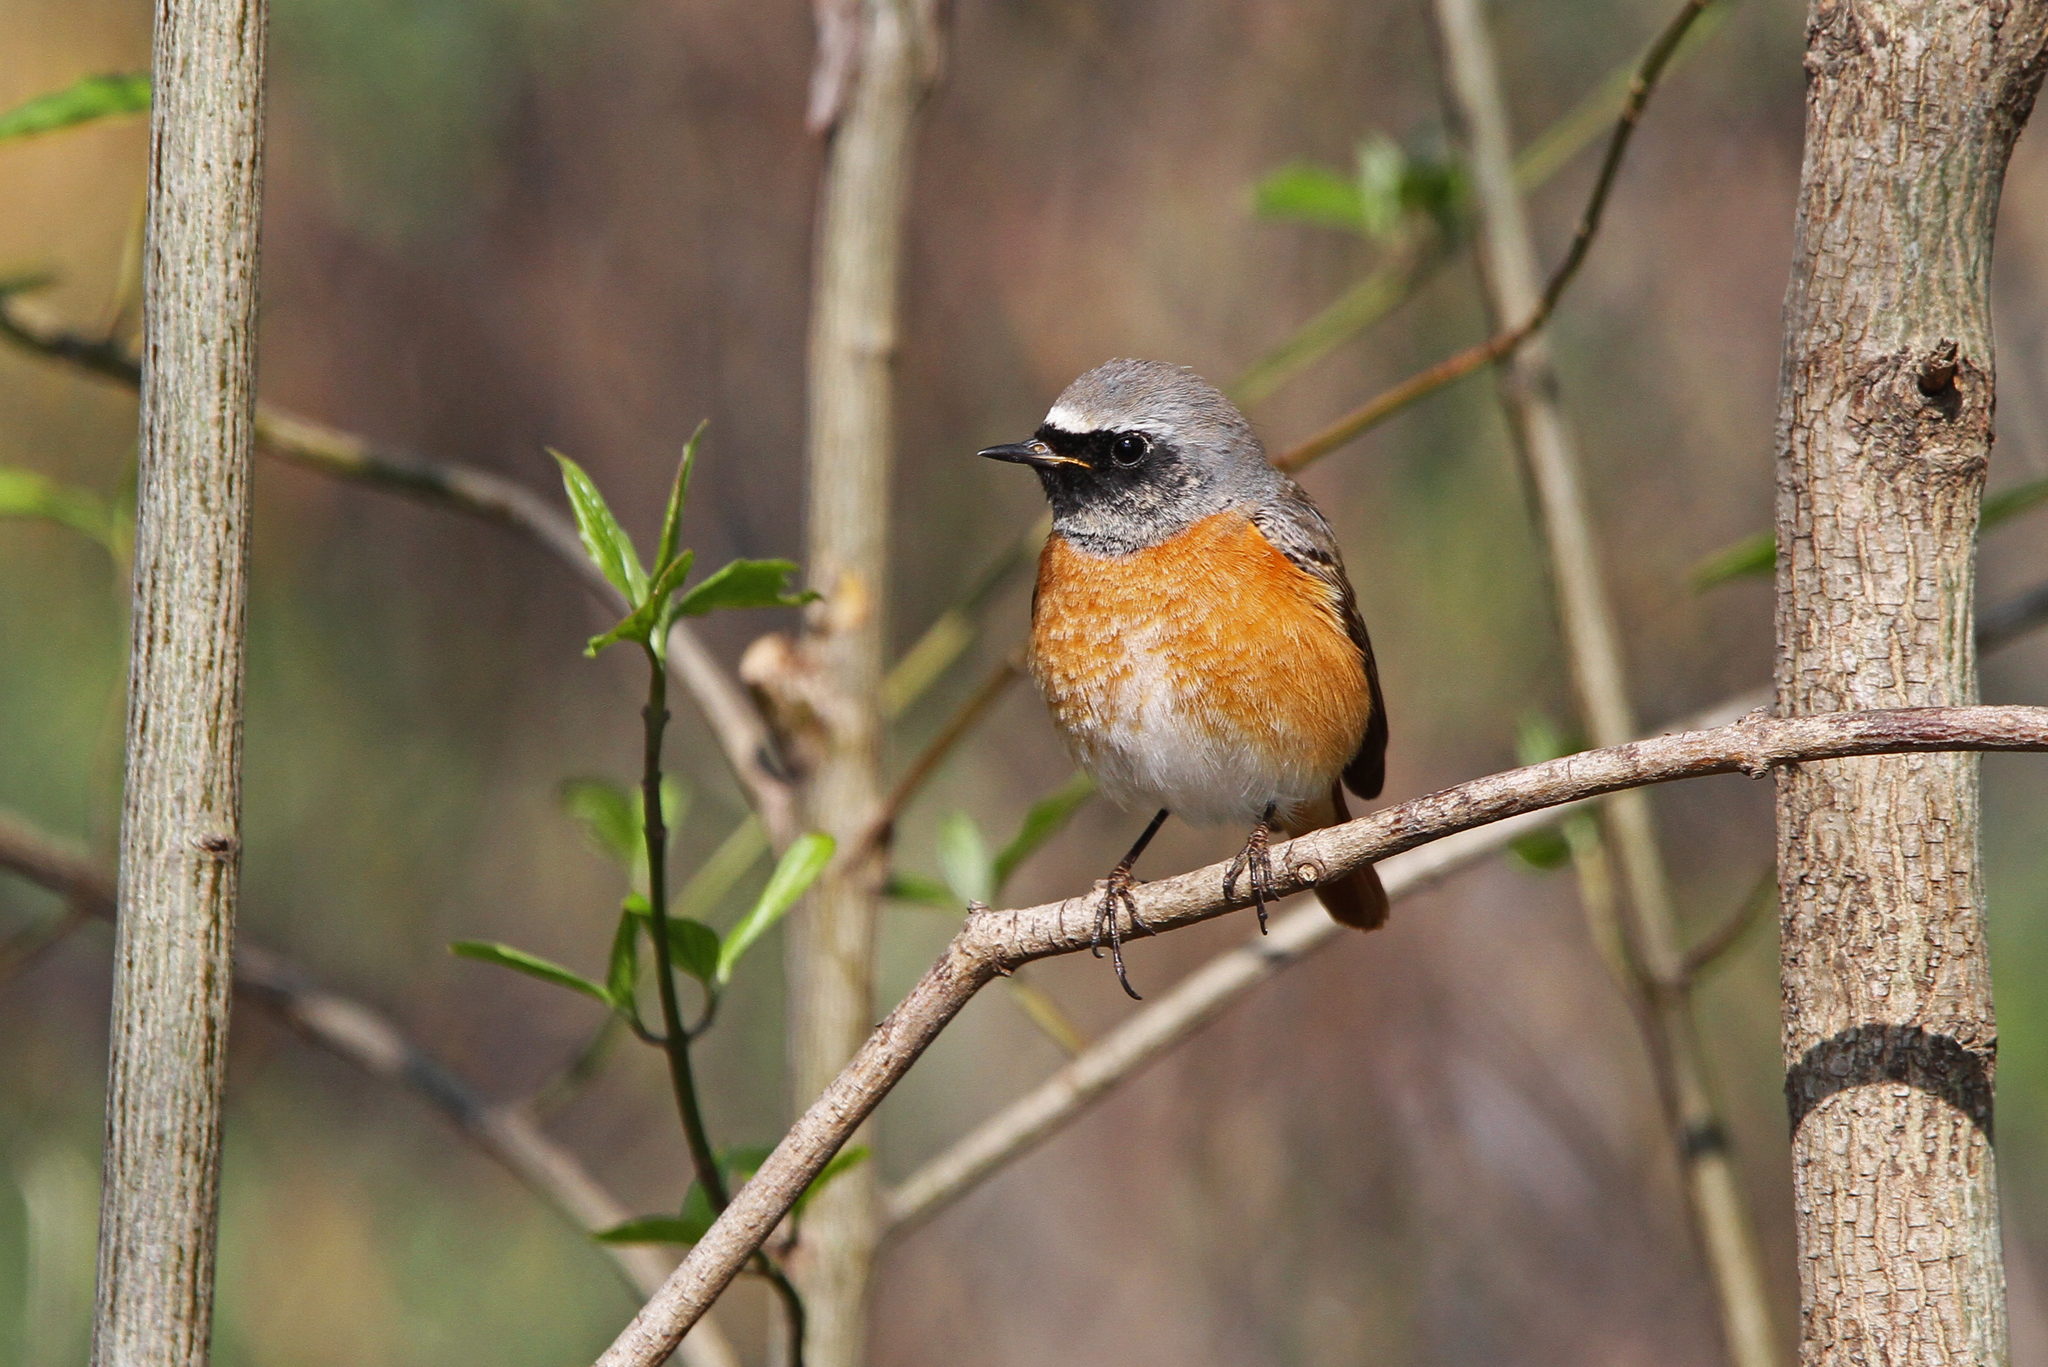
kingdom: Animalia
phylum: Chordata
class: Aves
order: Passeriformes
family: Muscicapidae
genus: Phoenicurus
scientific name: Phoenicurus phoenicurus
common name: Common redstart
